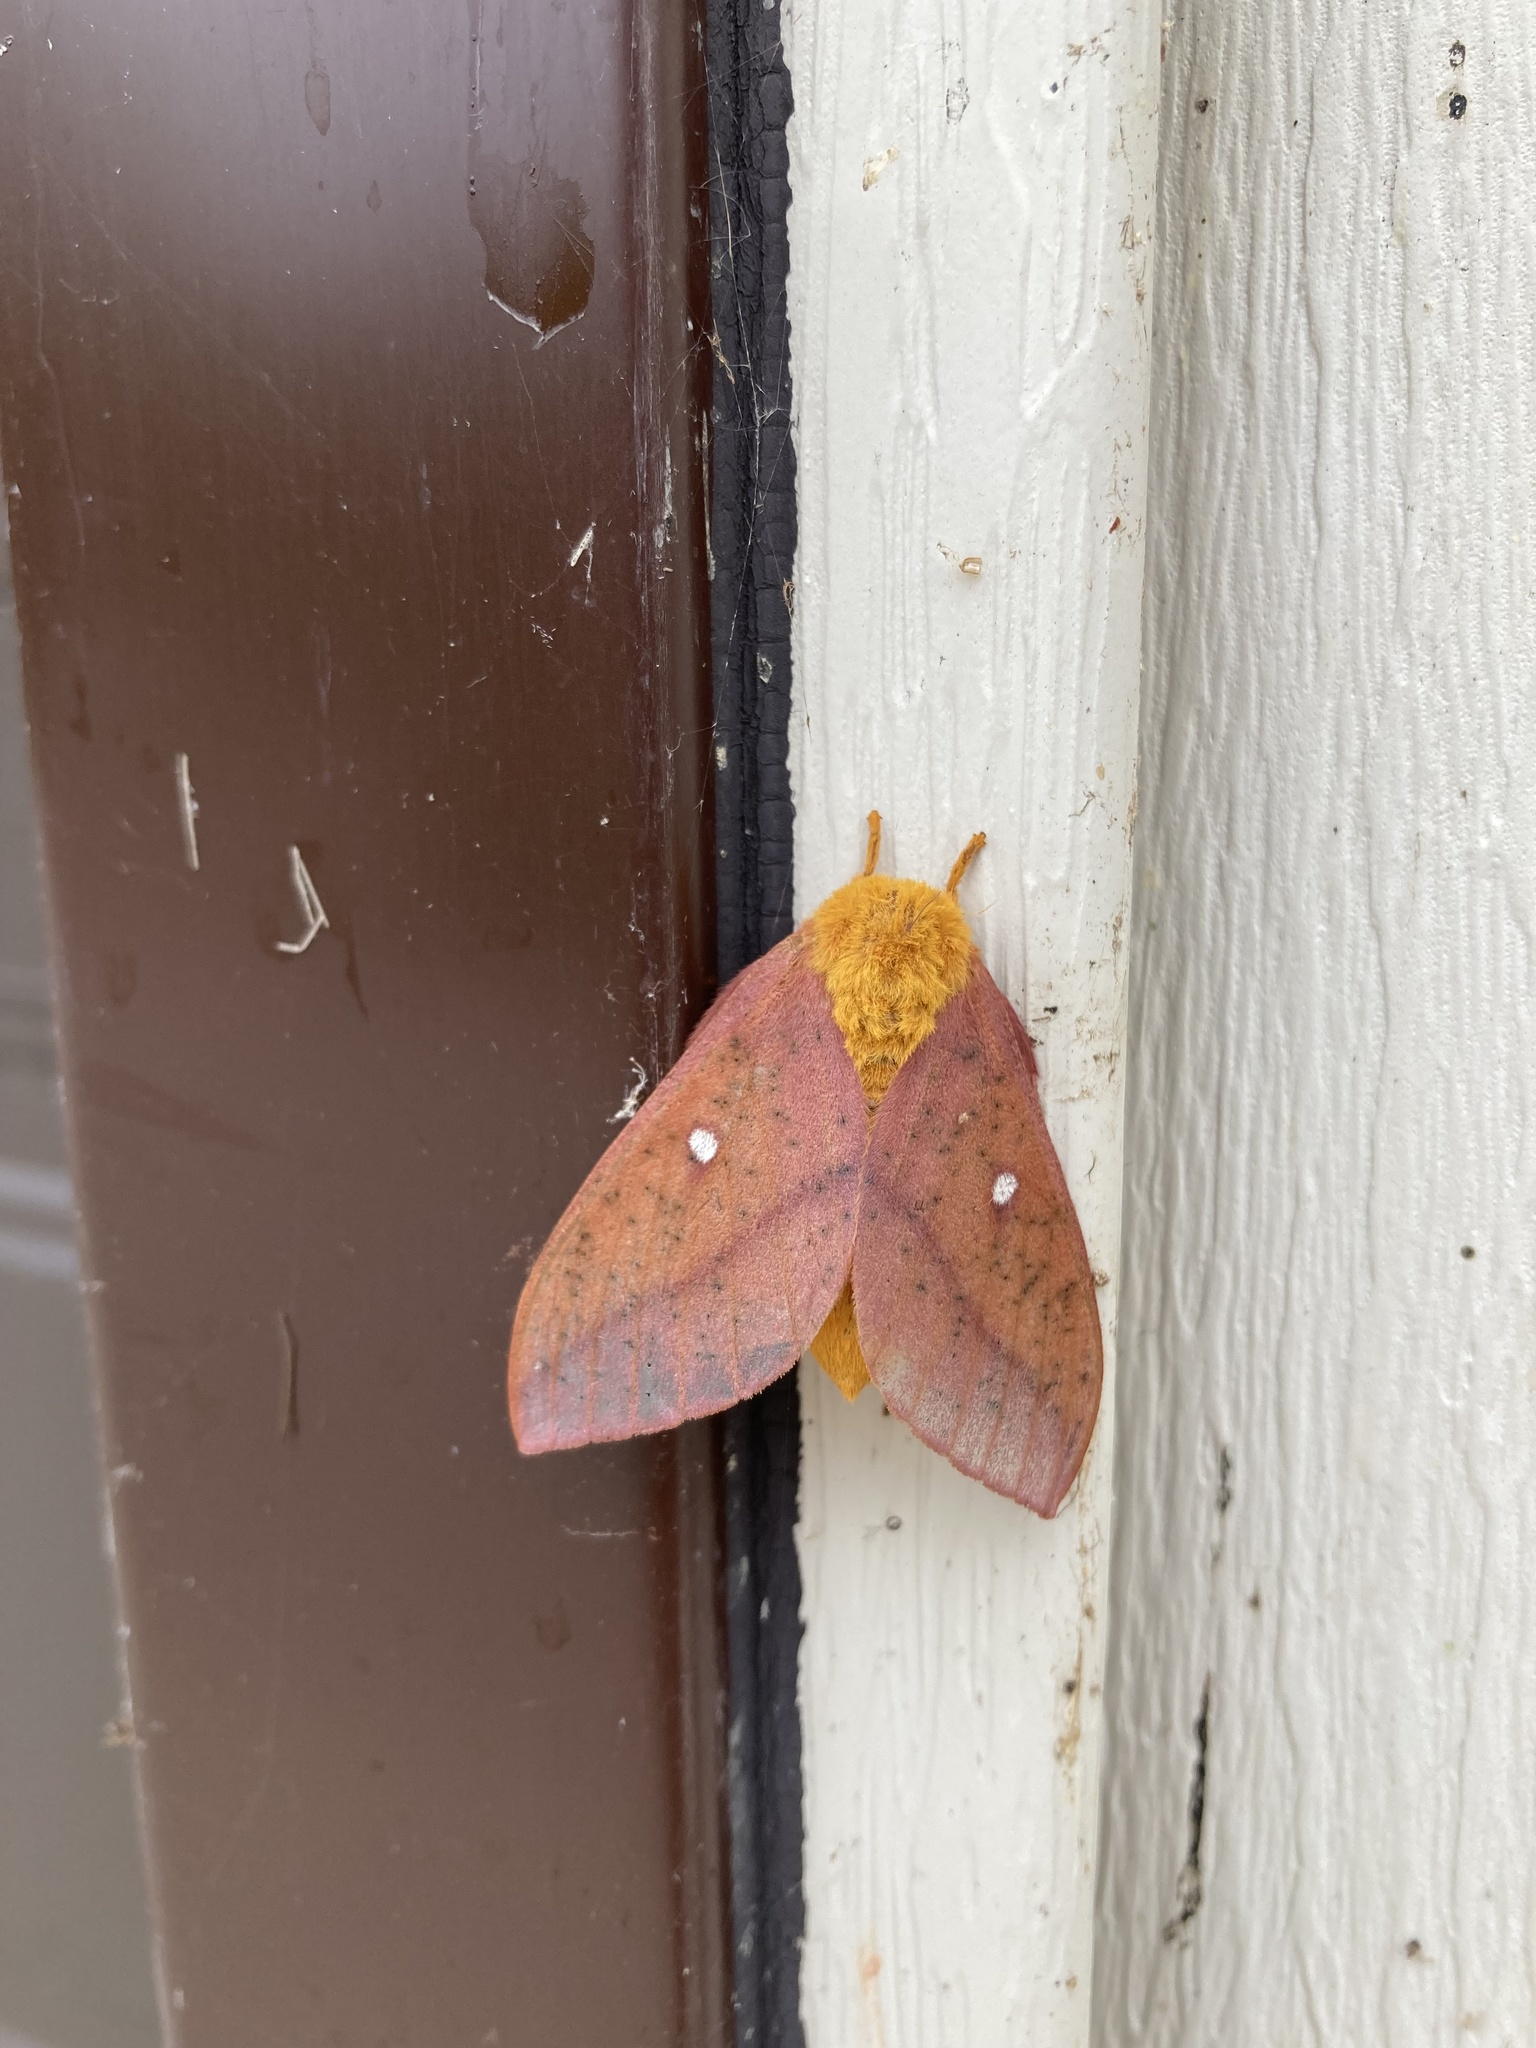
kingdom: Animalia
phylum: Arthropoda
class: Insecta
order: Lepidoptera
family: Saturniidae
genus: Anisota
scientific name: Anisota senatoria
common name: Orange-striped oakworm moth
